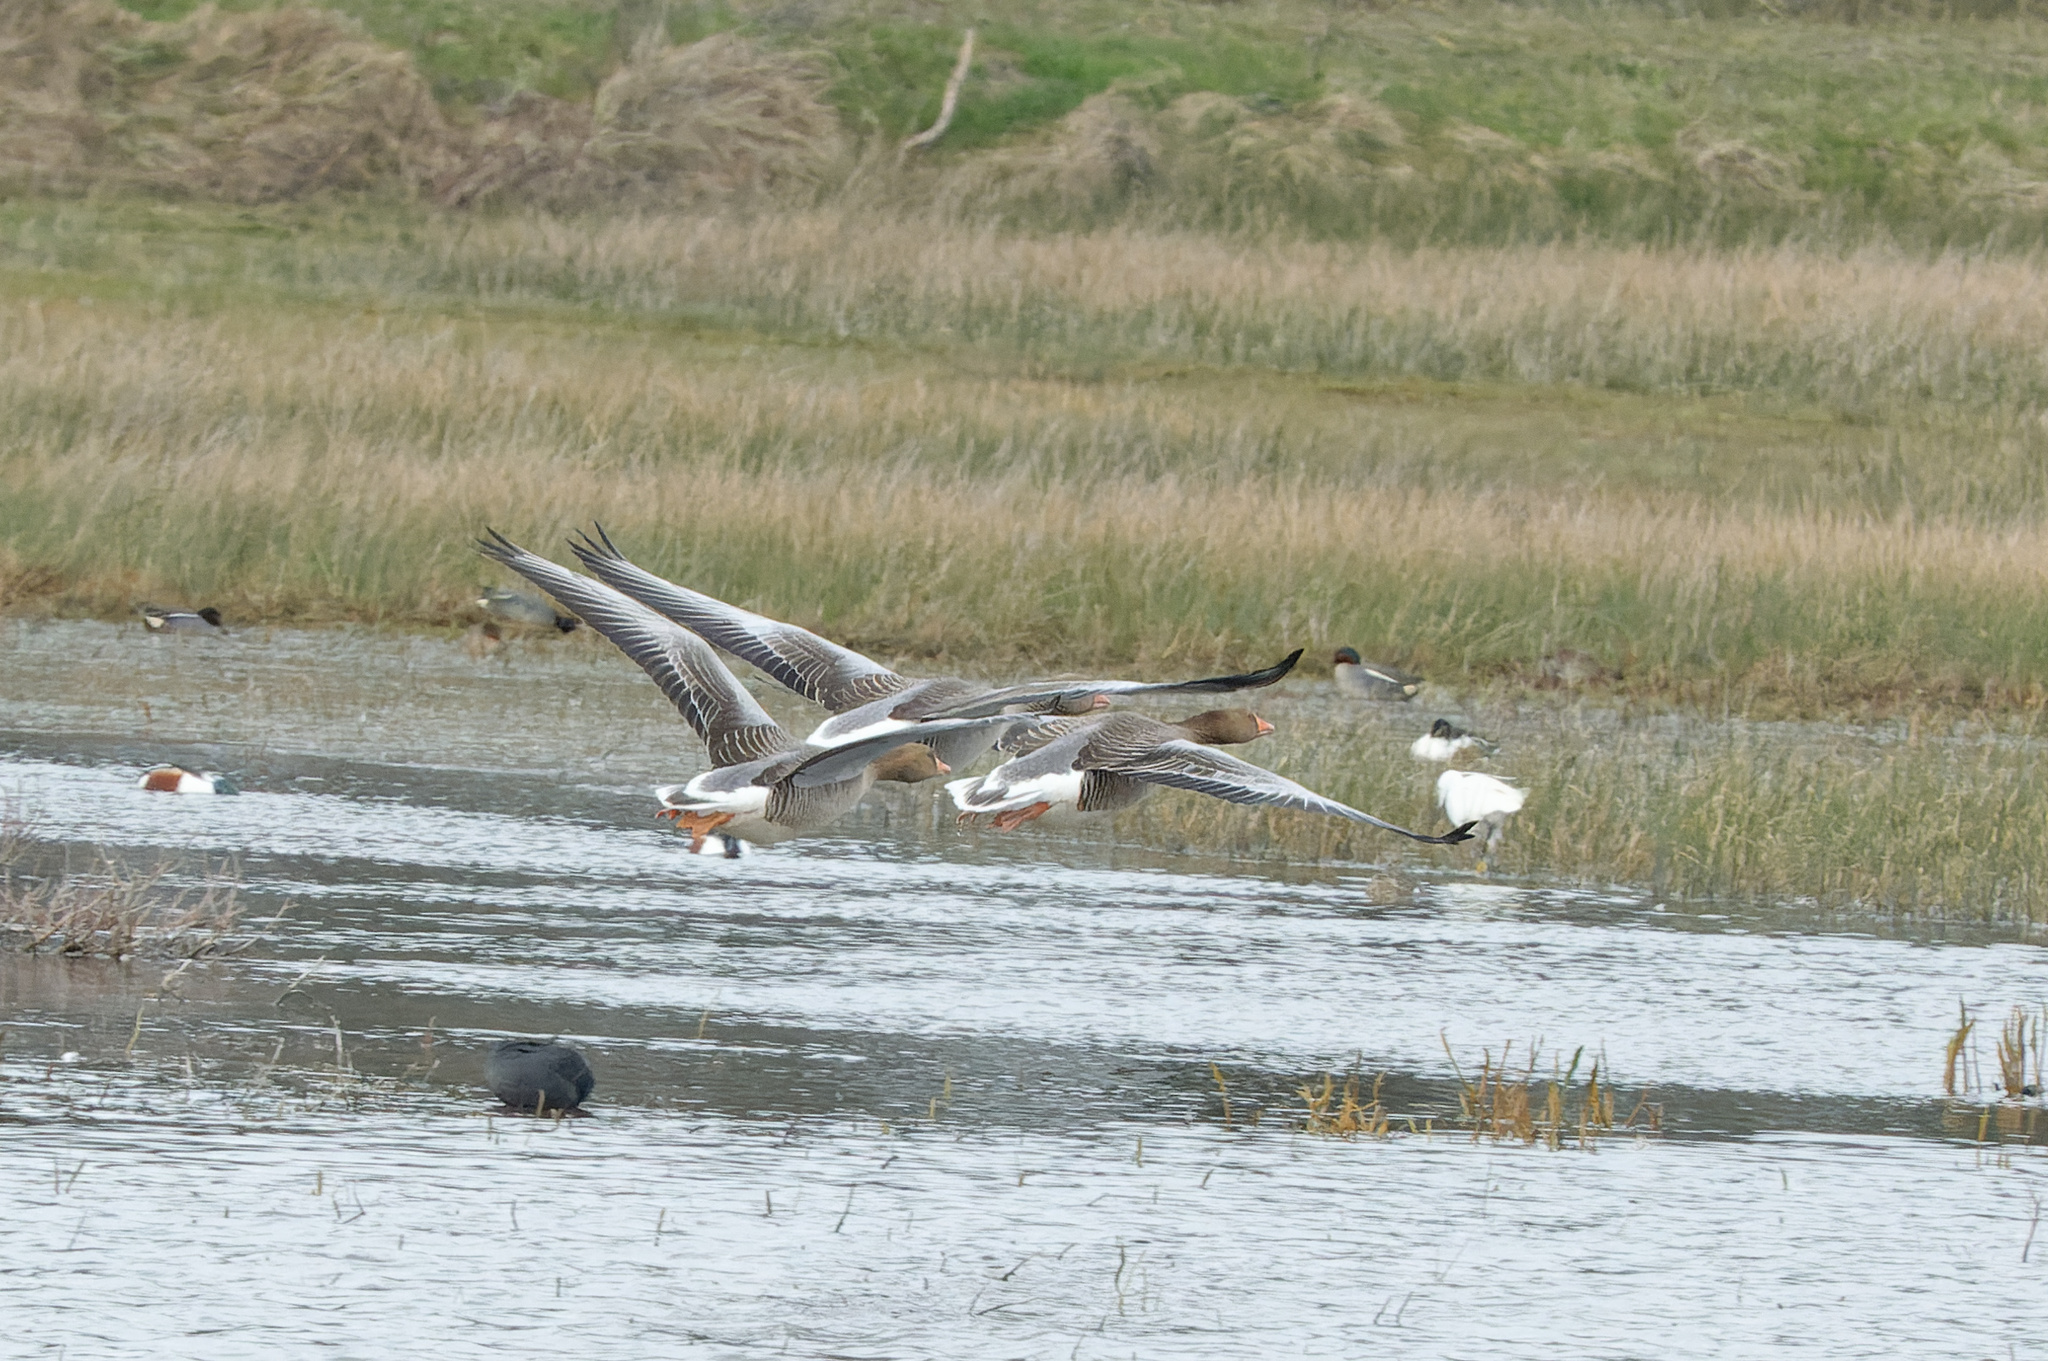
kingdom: Animalia
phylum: Chordata
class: Aves
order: Anseriformes
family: Anatidae
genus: Anser
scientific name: Anser anser
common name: Greylag goose
